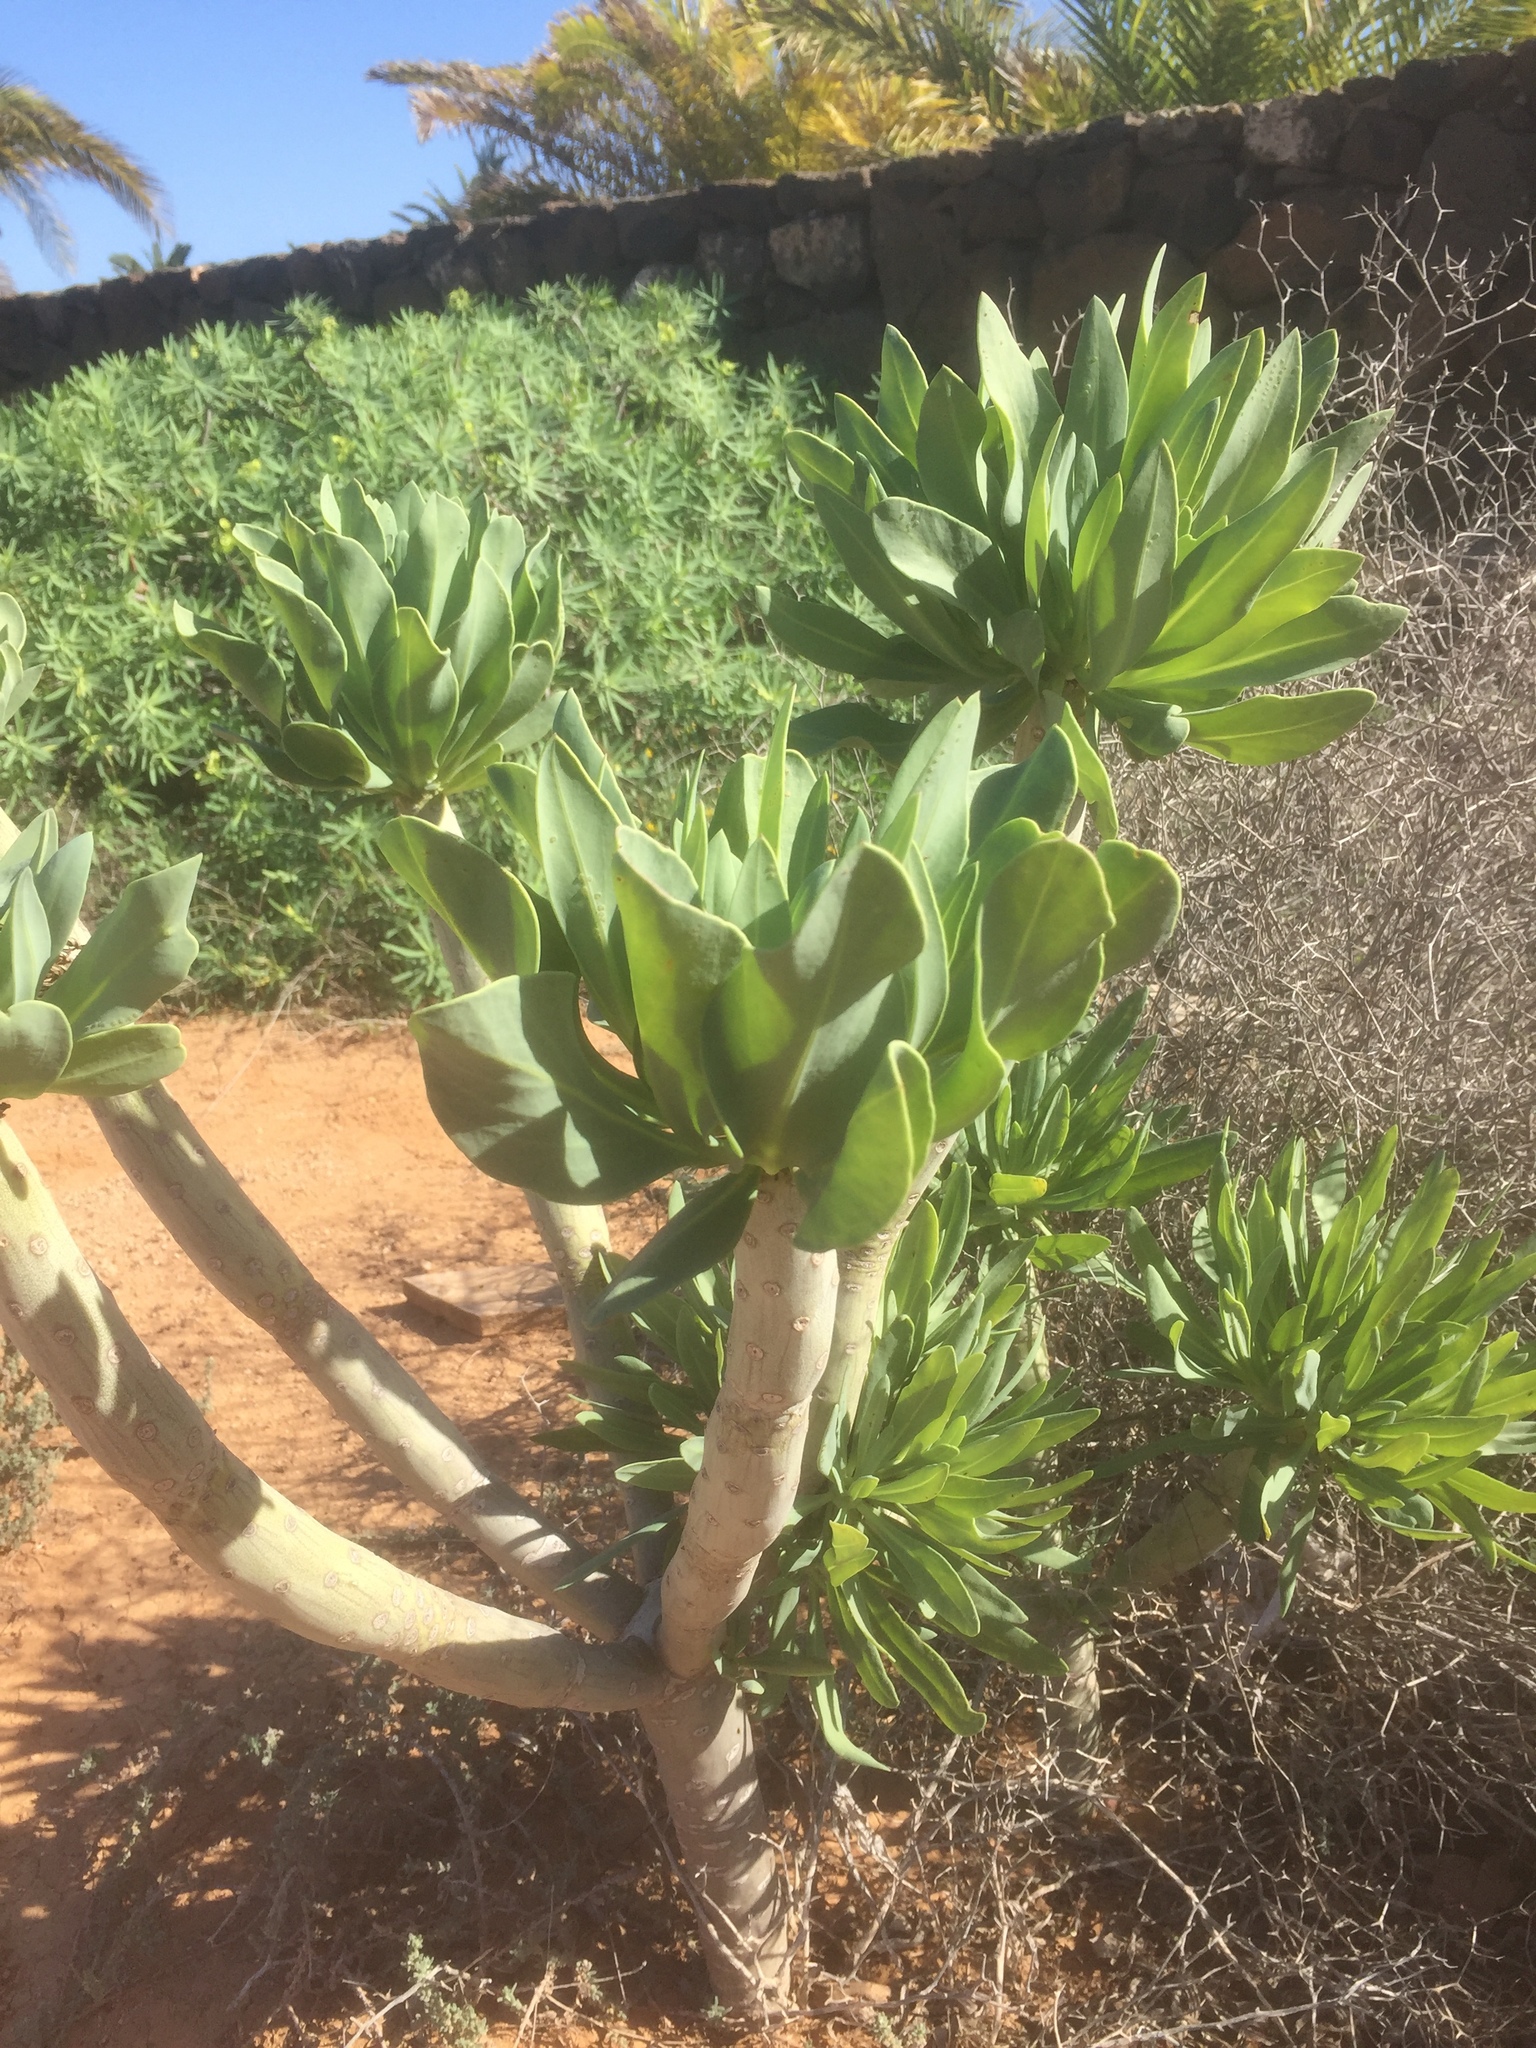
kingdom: Plantae
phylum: Tracheophyta
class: Magnoliopsida
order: Asterales
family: Asteraceae
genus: Kleinia
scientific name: Kleinia neriifolia
